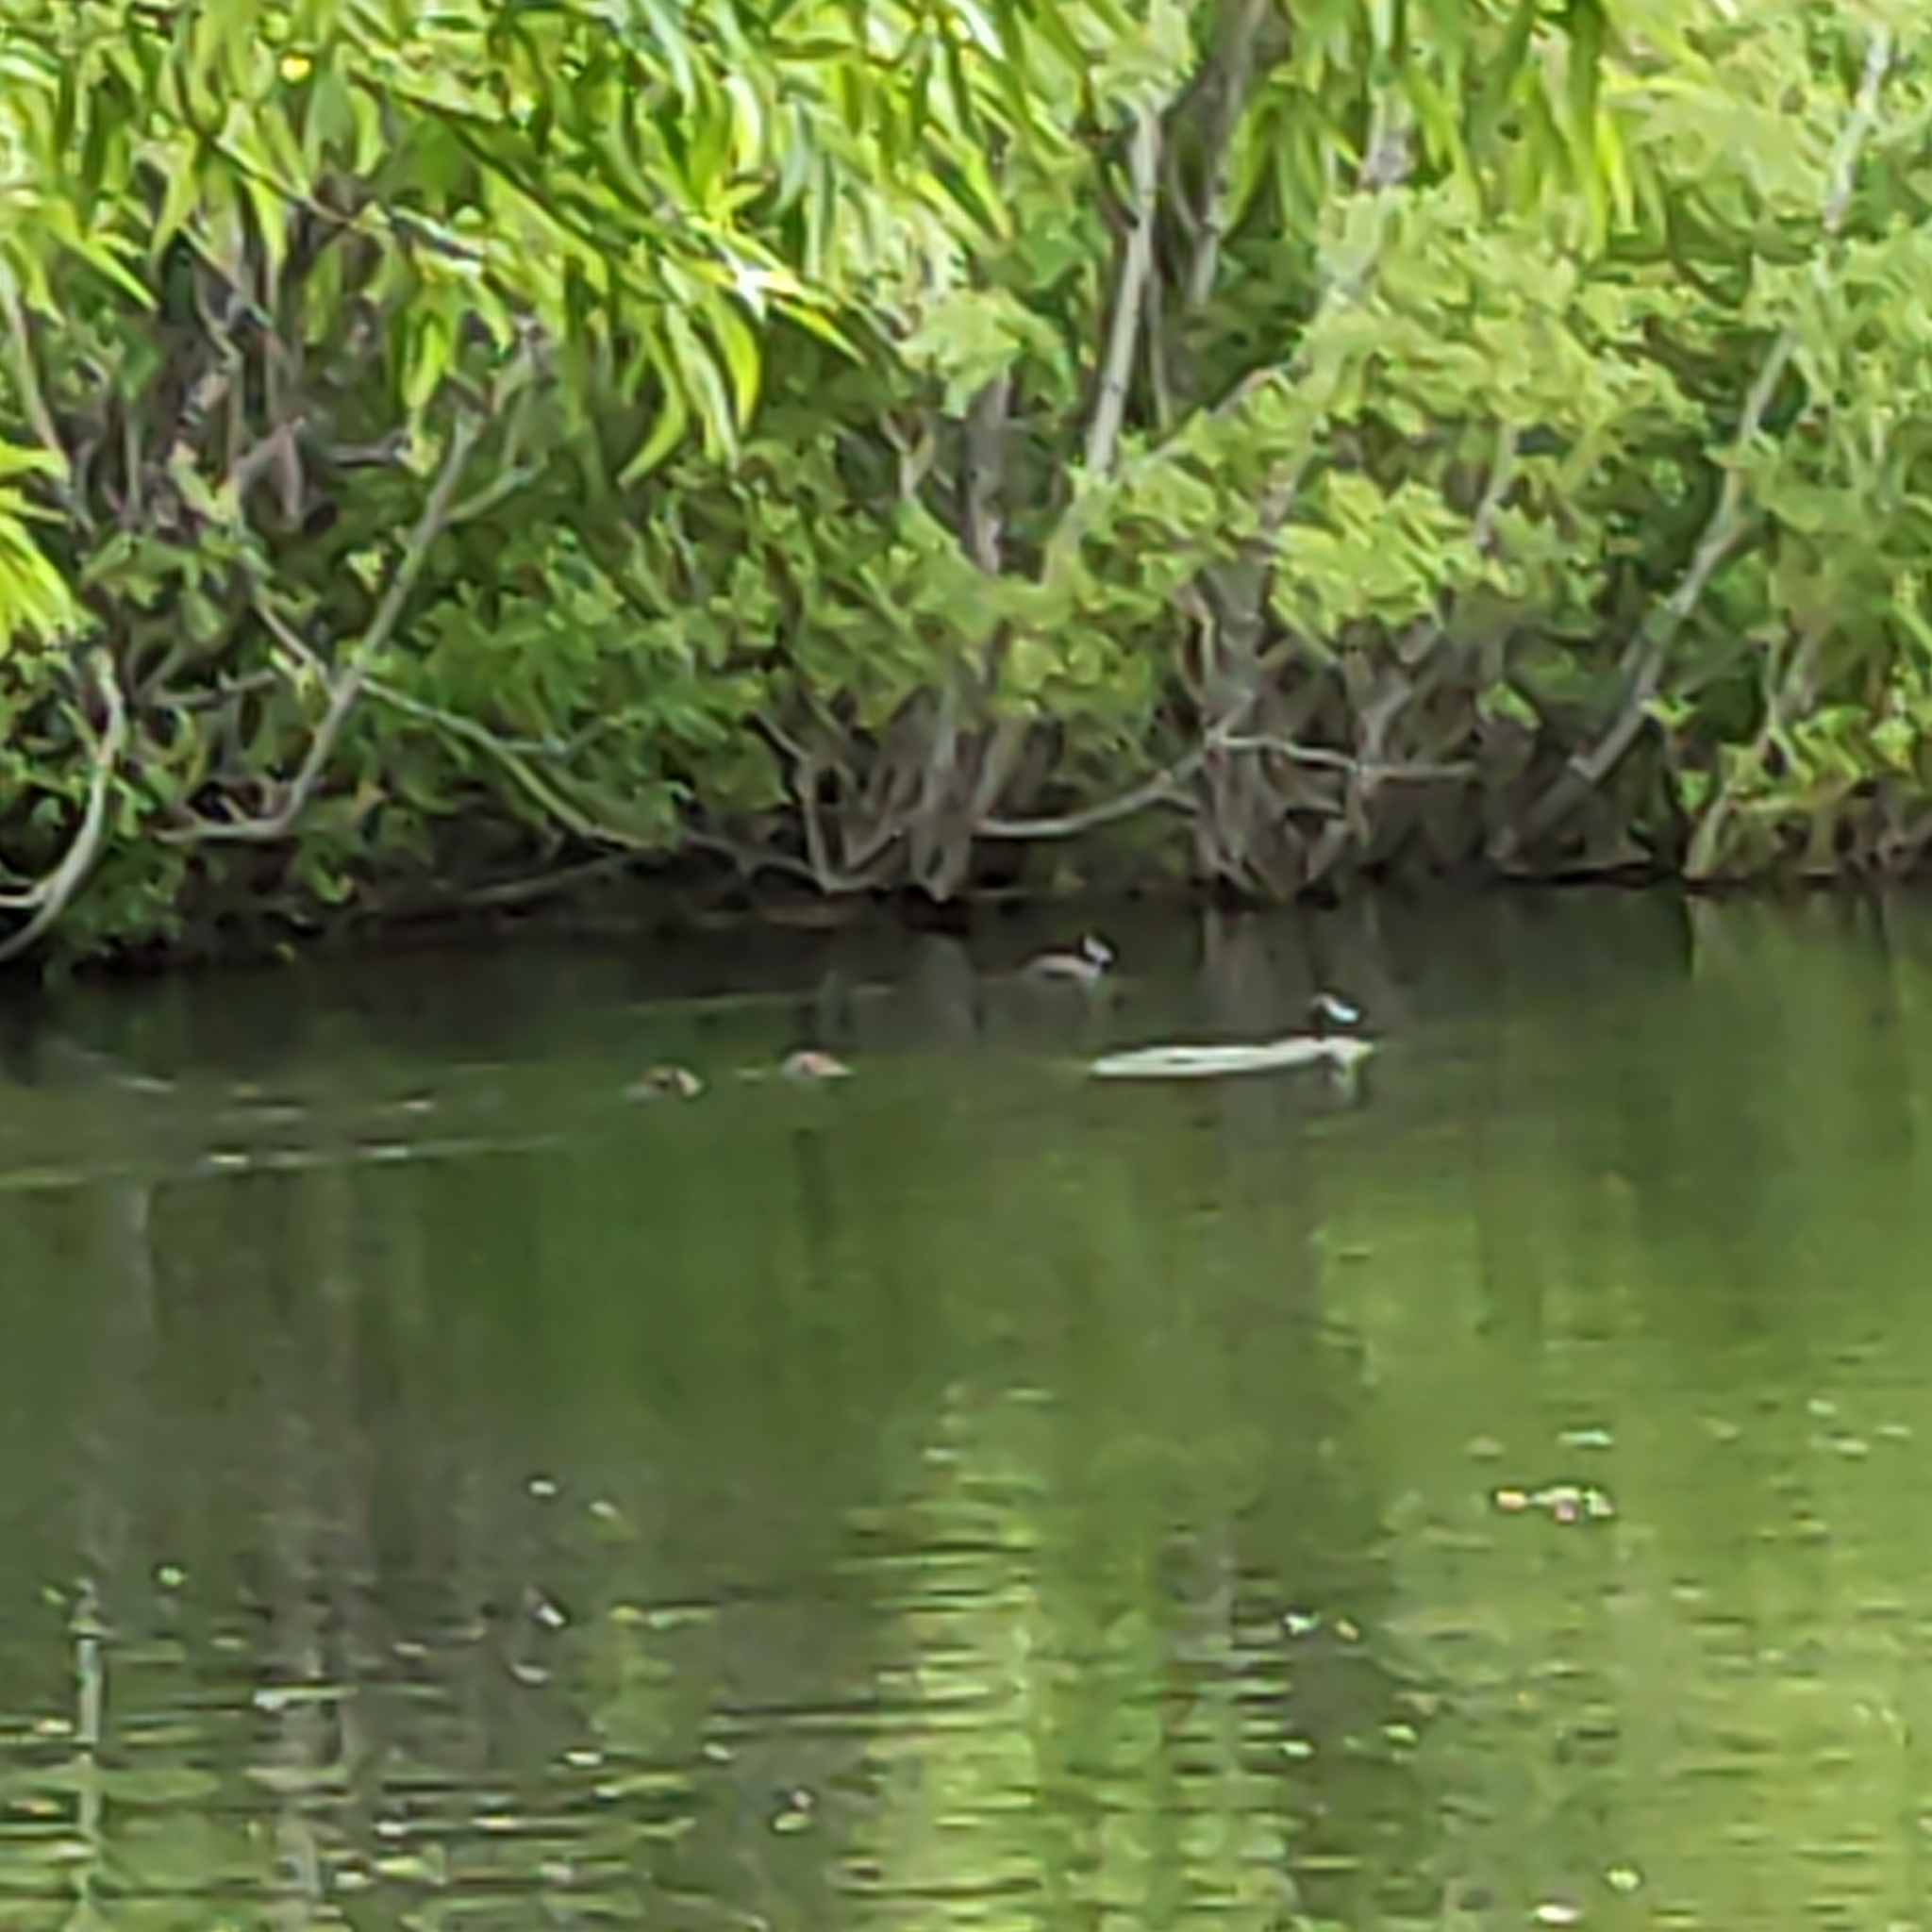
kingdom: Animalia
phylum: Chordata
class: Aves
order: Anseriformes
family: Anatidae
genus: Aythya
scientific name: Aythya novaeseelandiae
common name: New zealand scaup
